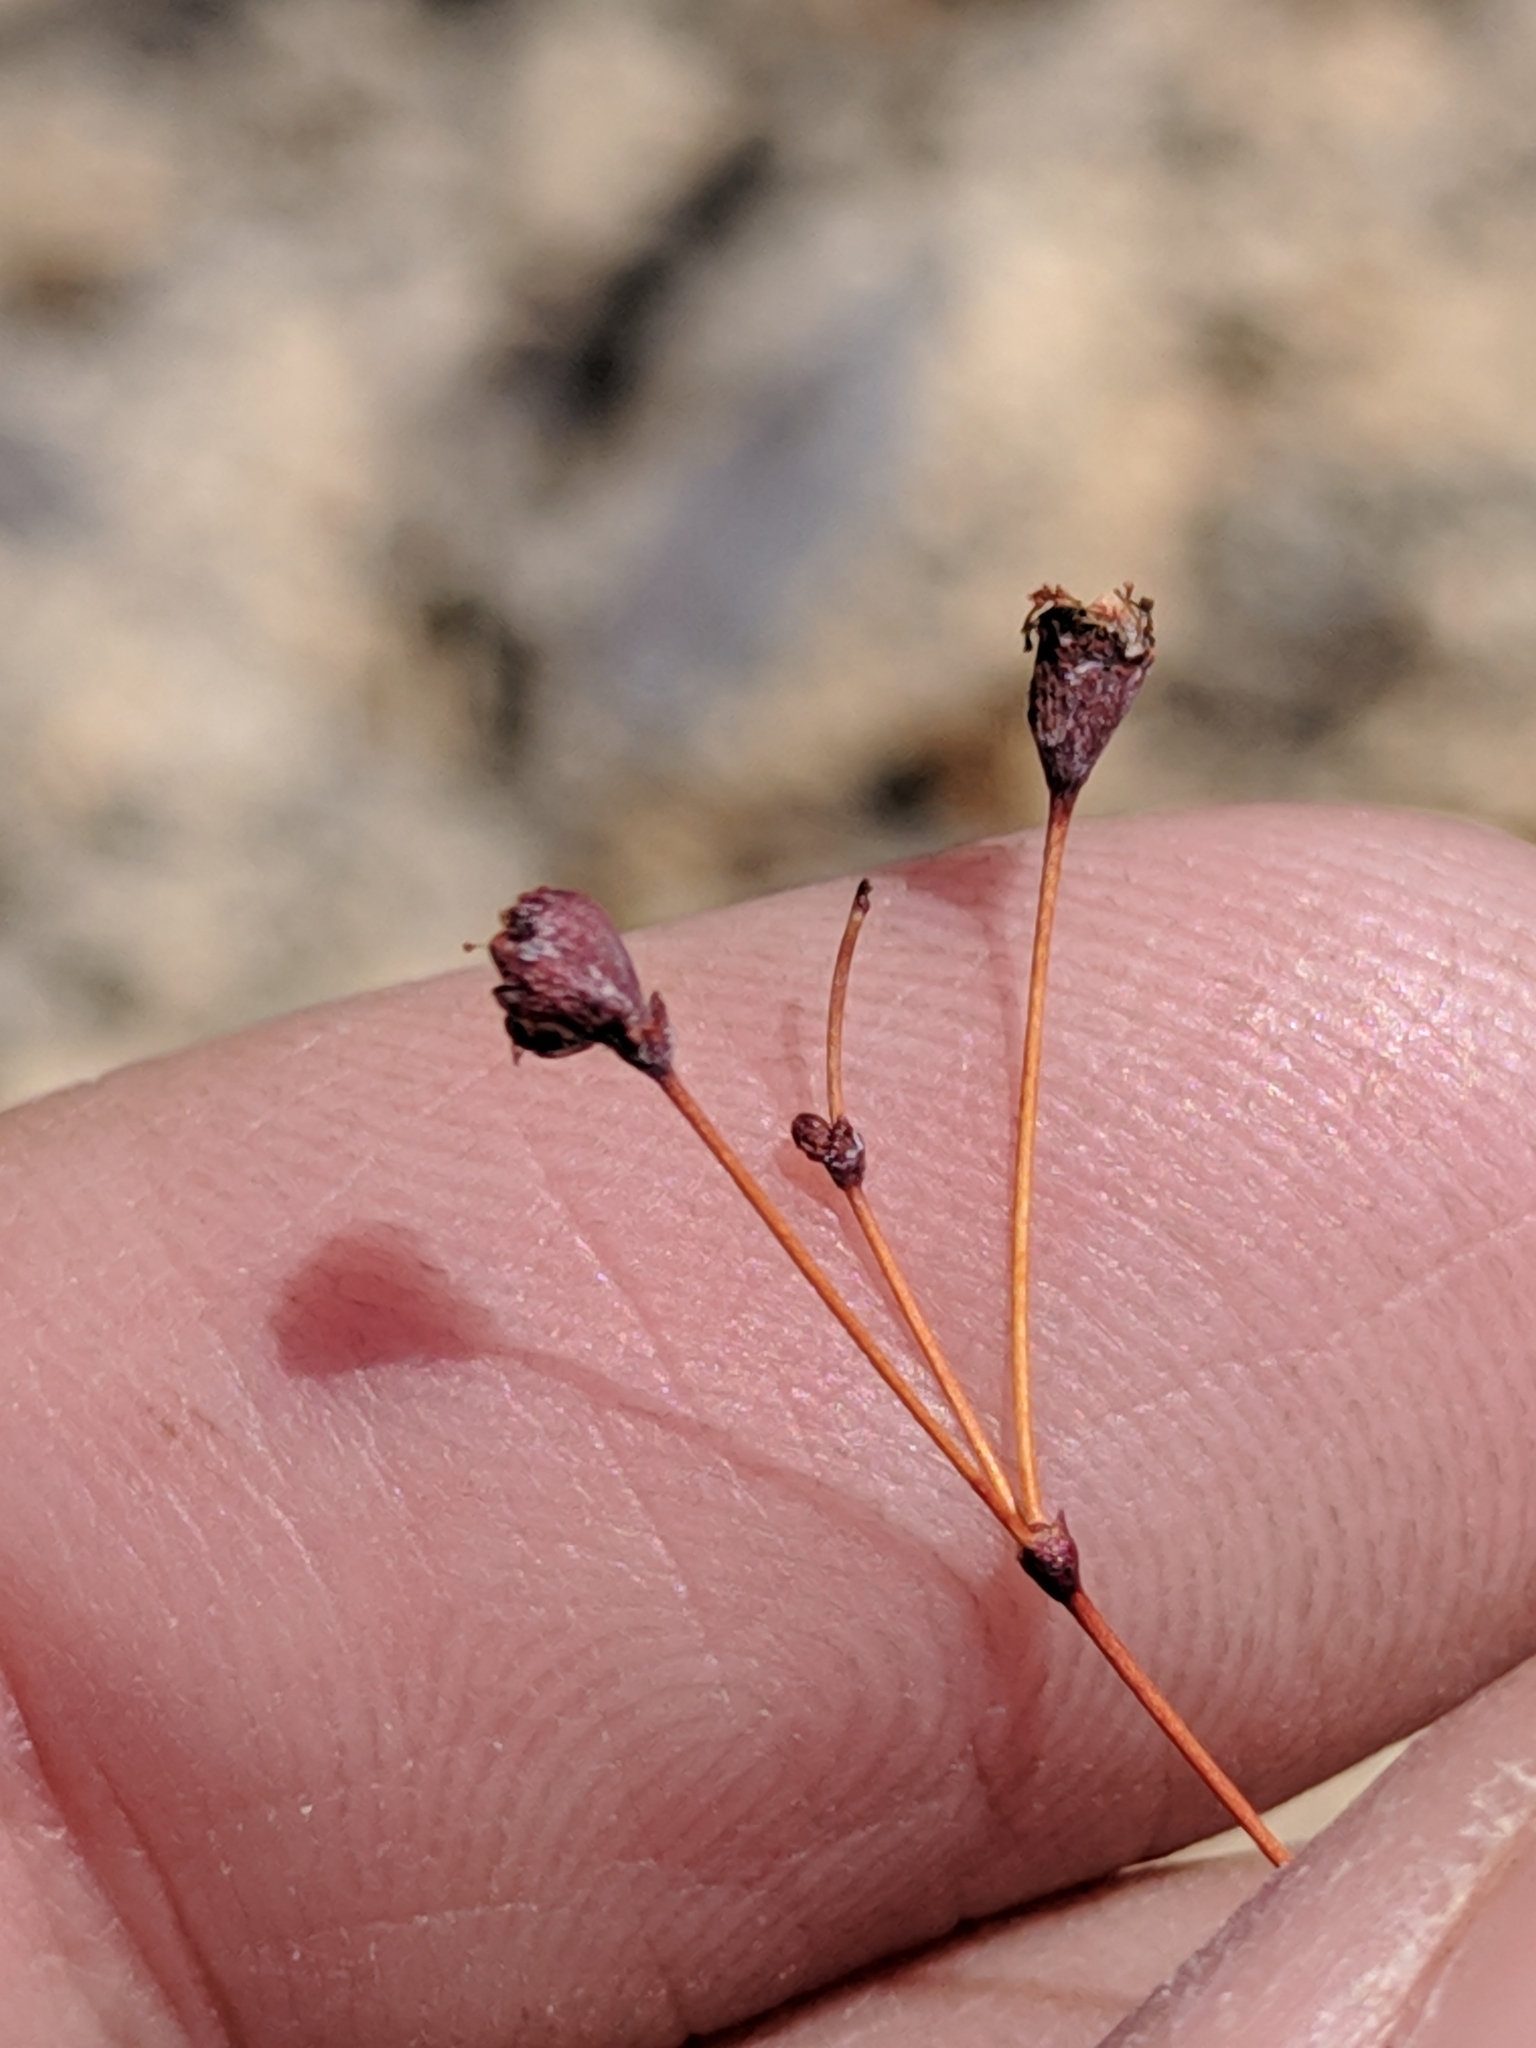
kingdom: Plantae
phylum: Tracheophyta
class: Magnoliopsida
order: Caryophyllales
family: Polygonaceae
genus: Eriogonum
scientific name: Eriogonum tenellum
